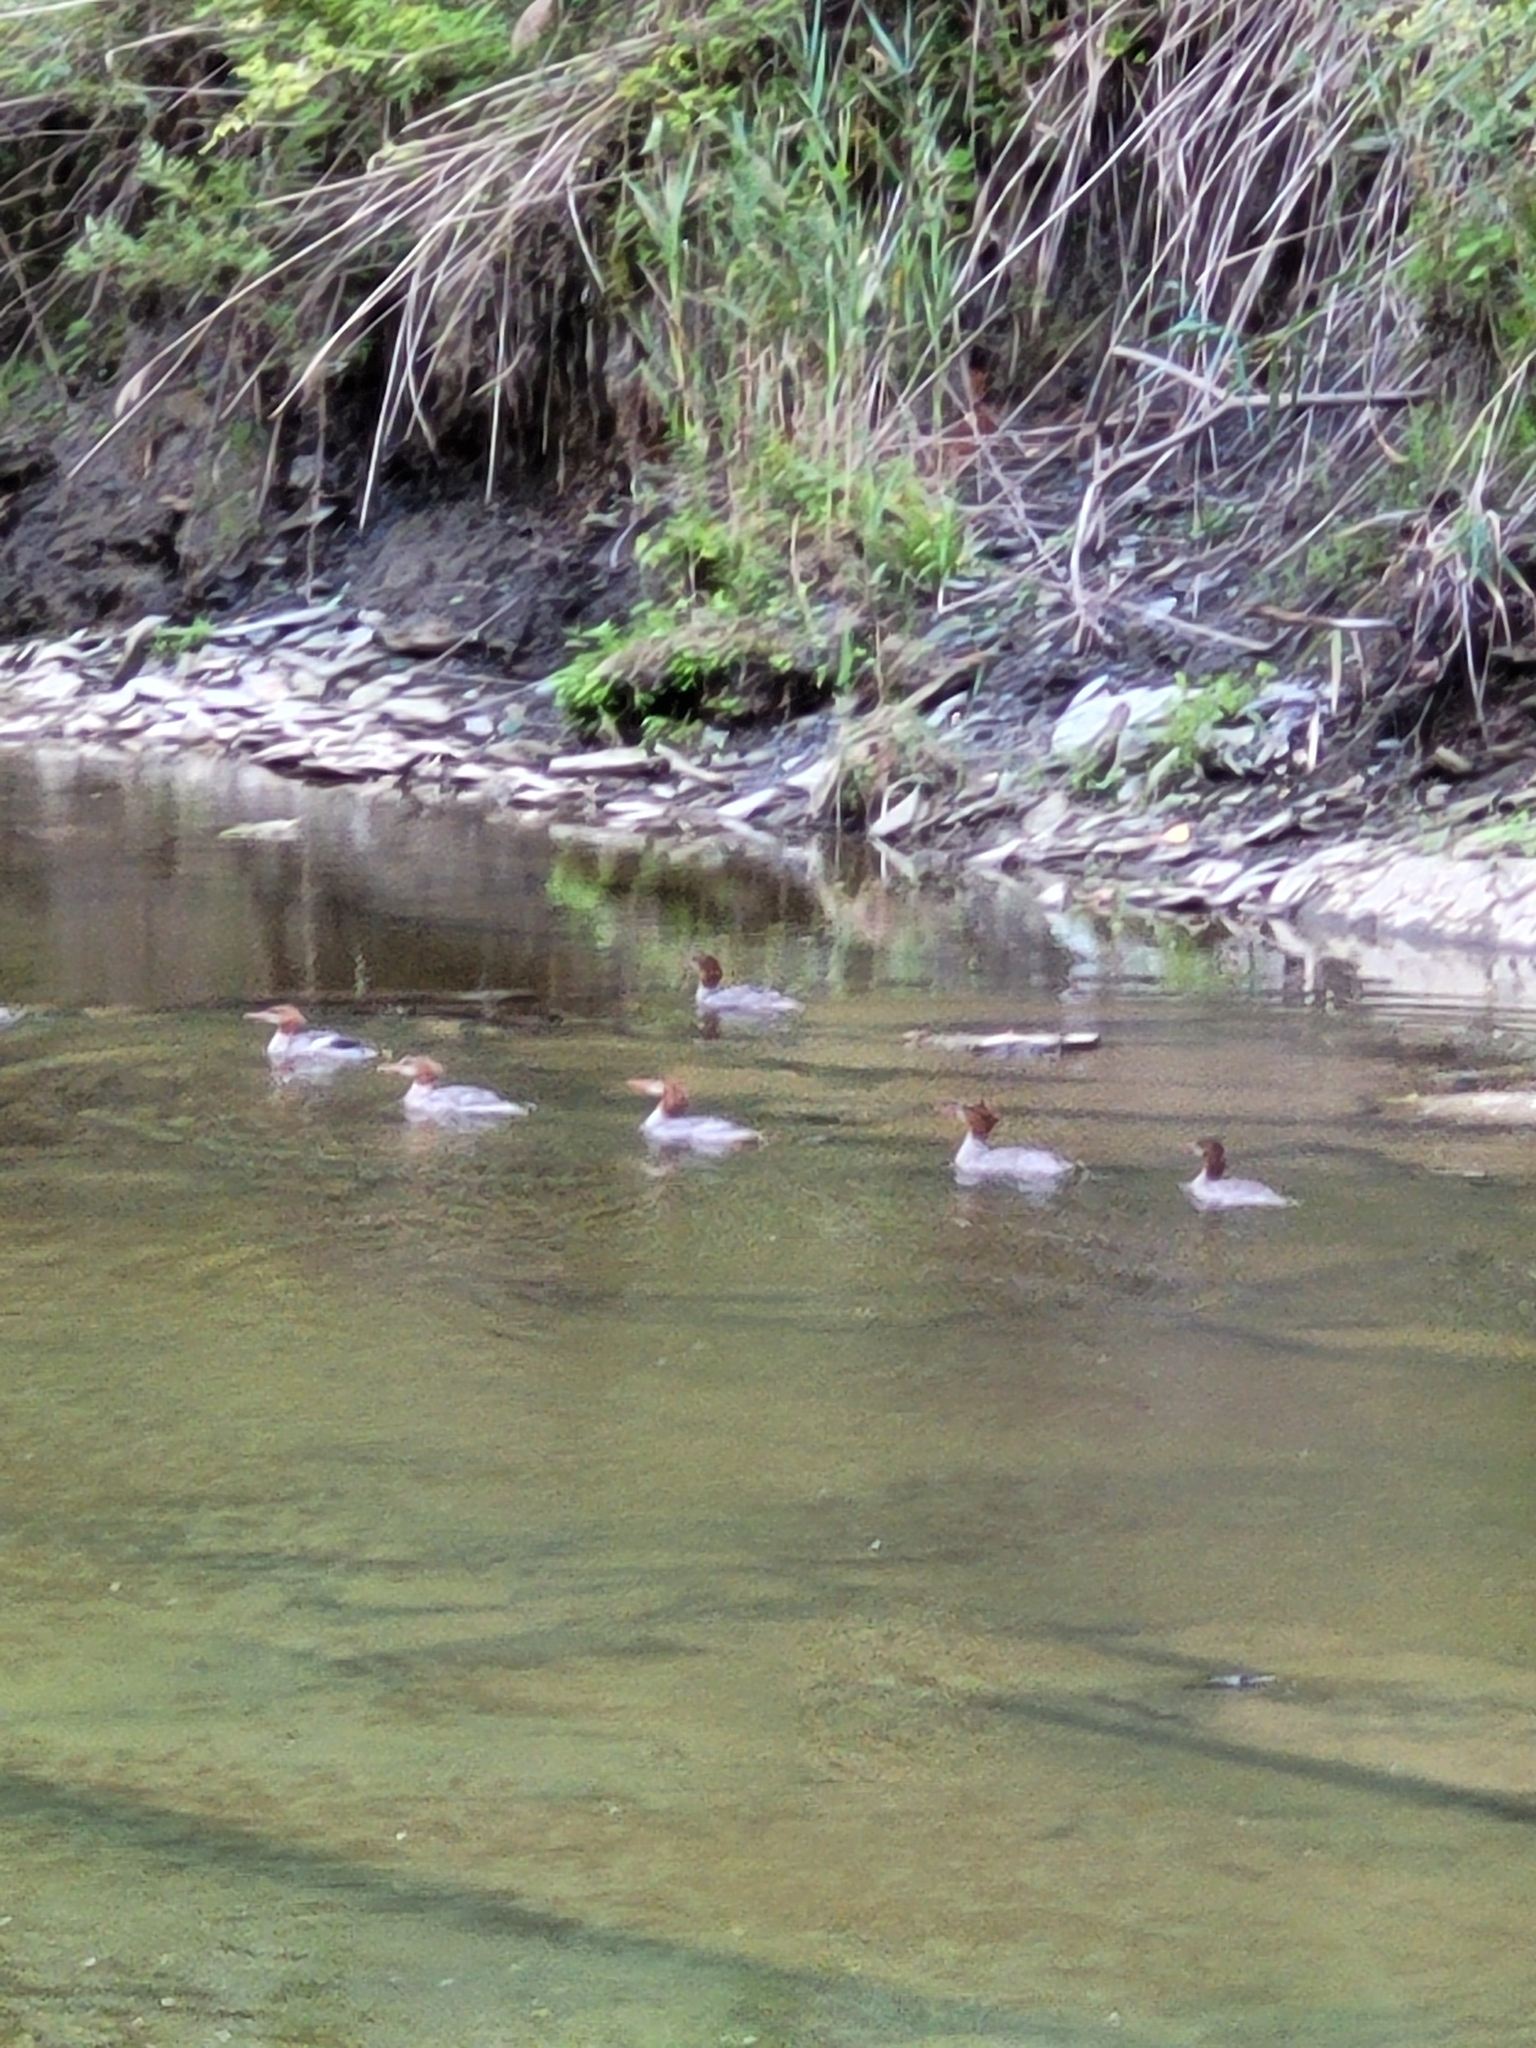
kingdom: Animalia
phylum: Chordata
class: Aves
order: Anseriformes
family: Anatidae
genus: Mergus
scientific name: Mergus merganser
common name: Common merganser
